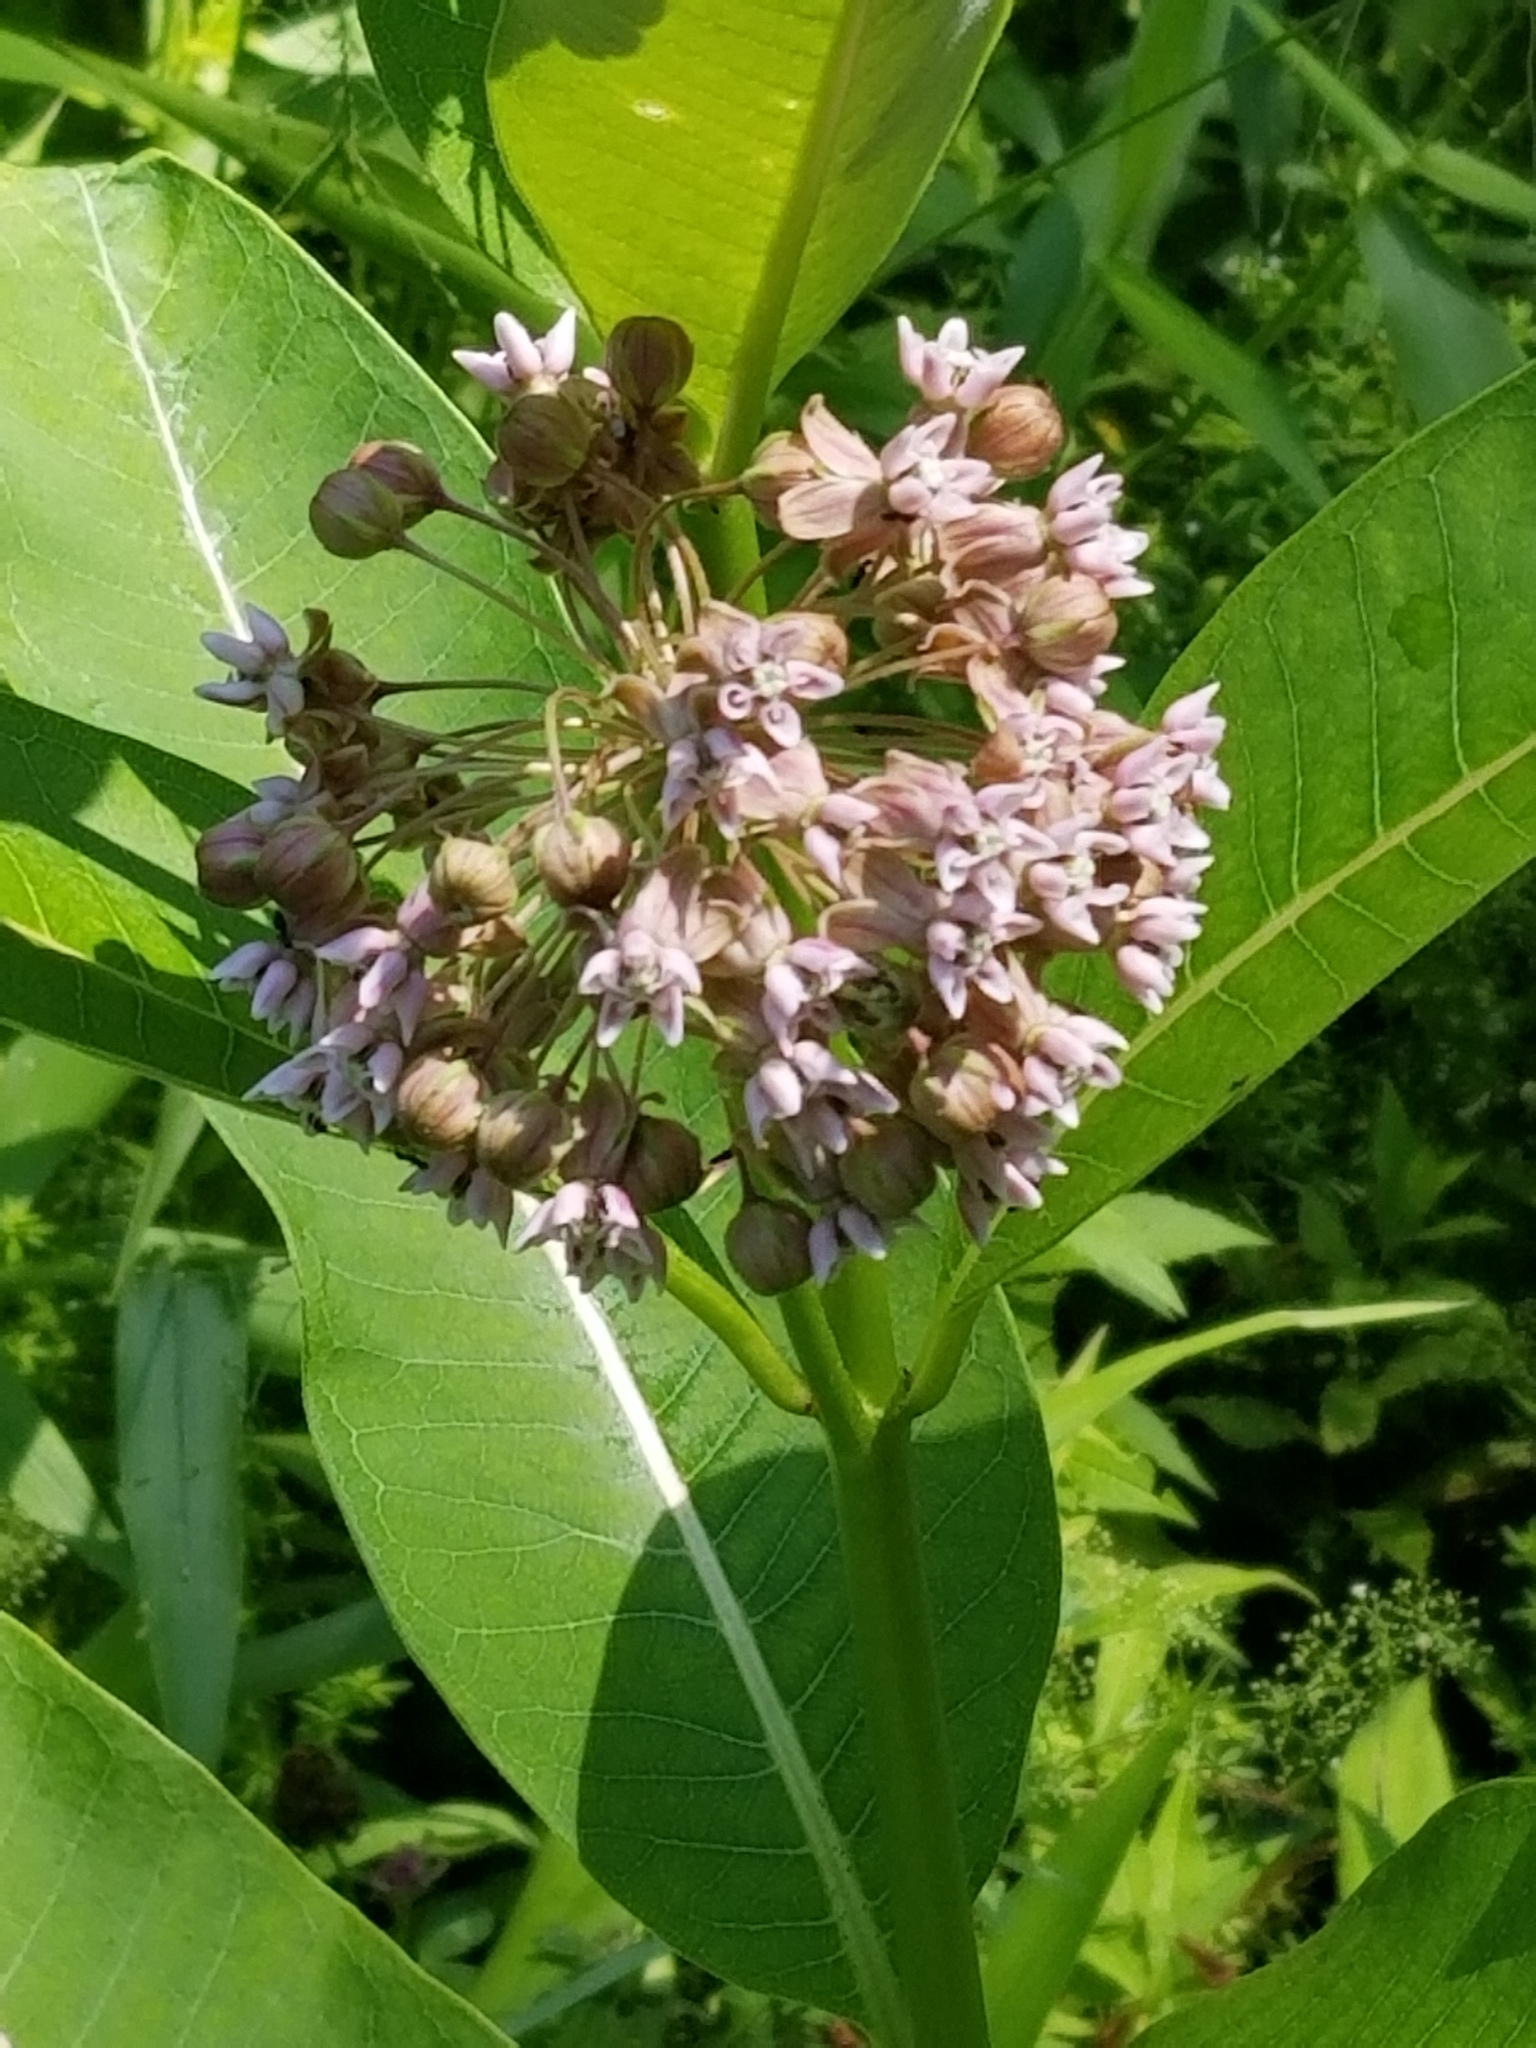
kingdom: Plantae
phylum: Tracheophyta
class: Magnoliopsida
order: Gentianales
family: Apocynaceae
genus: Asclepias
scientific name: Asclepias syriaca
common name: Common milkweed
